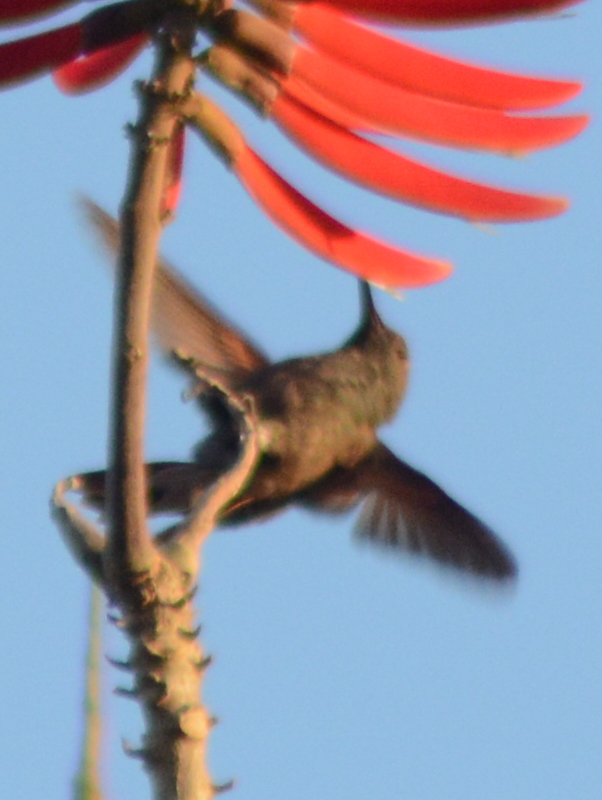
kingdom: Animalia
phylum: Chordata
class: Aves
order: Apodiformes
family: Trochilidae
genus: Saucerottia
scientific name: Saucerottia beryllina
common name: Berylline hummingbird
